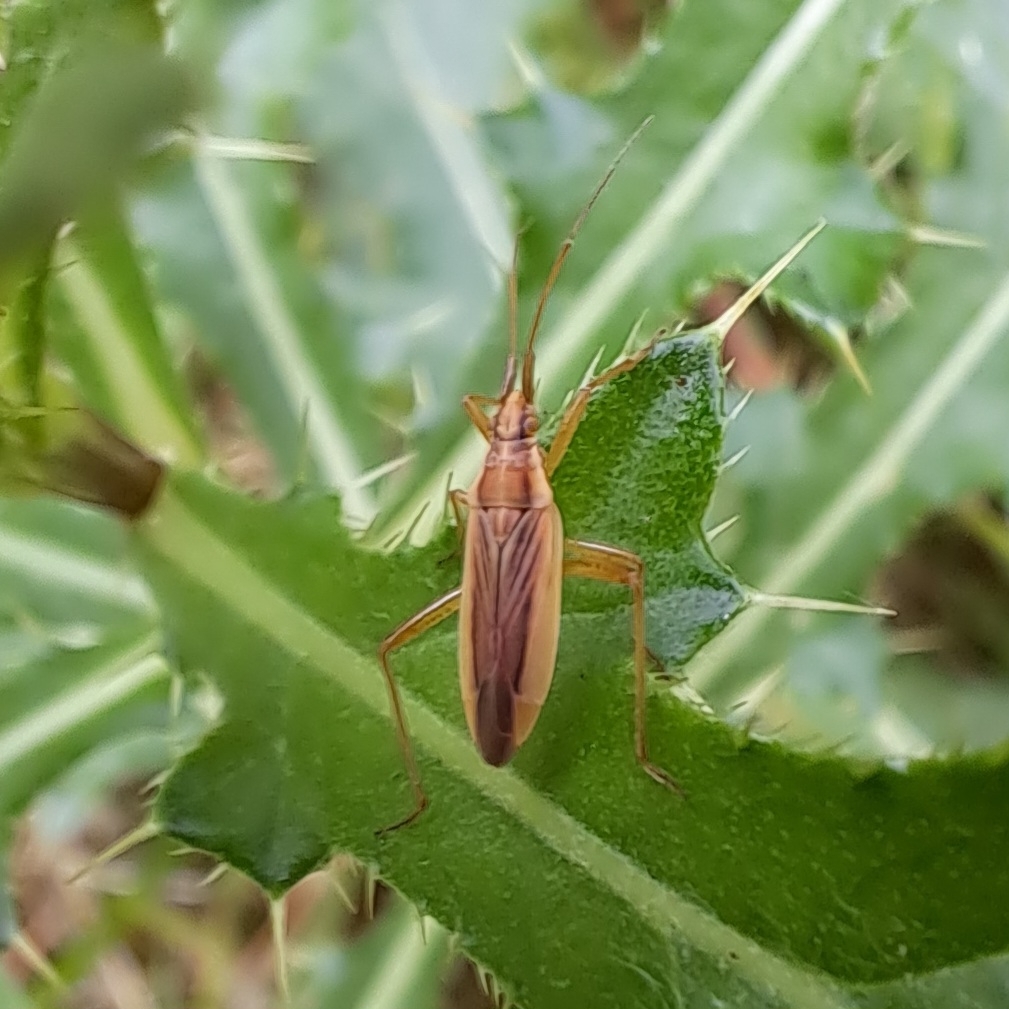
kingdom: Animalia
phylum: Arthropoda
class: Insecta
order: Hemiptera
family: Miridae
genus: Stenodema
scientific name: Stenodema holsata
